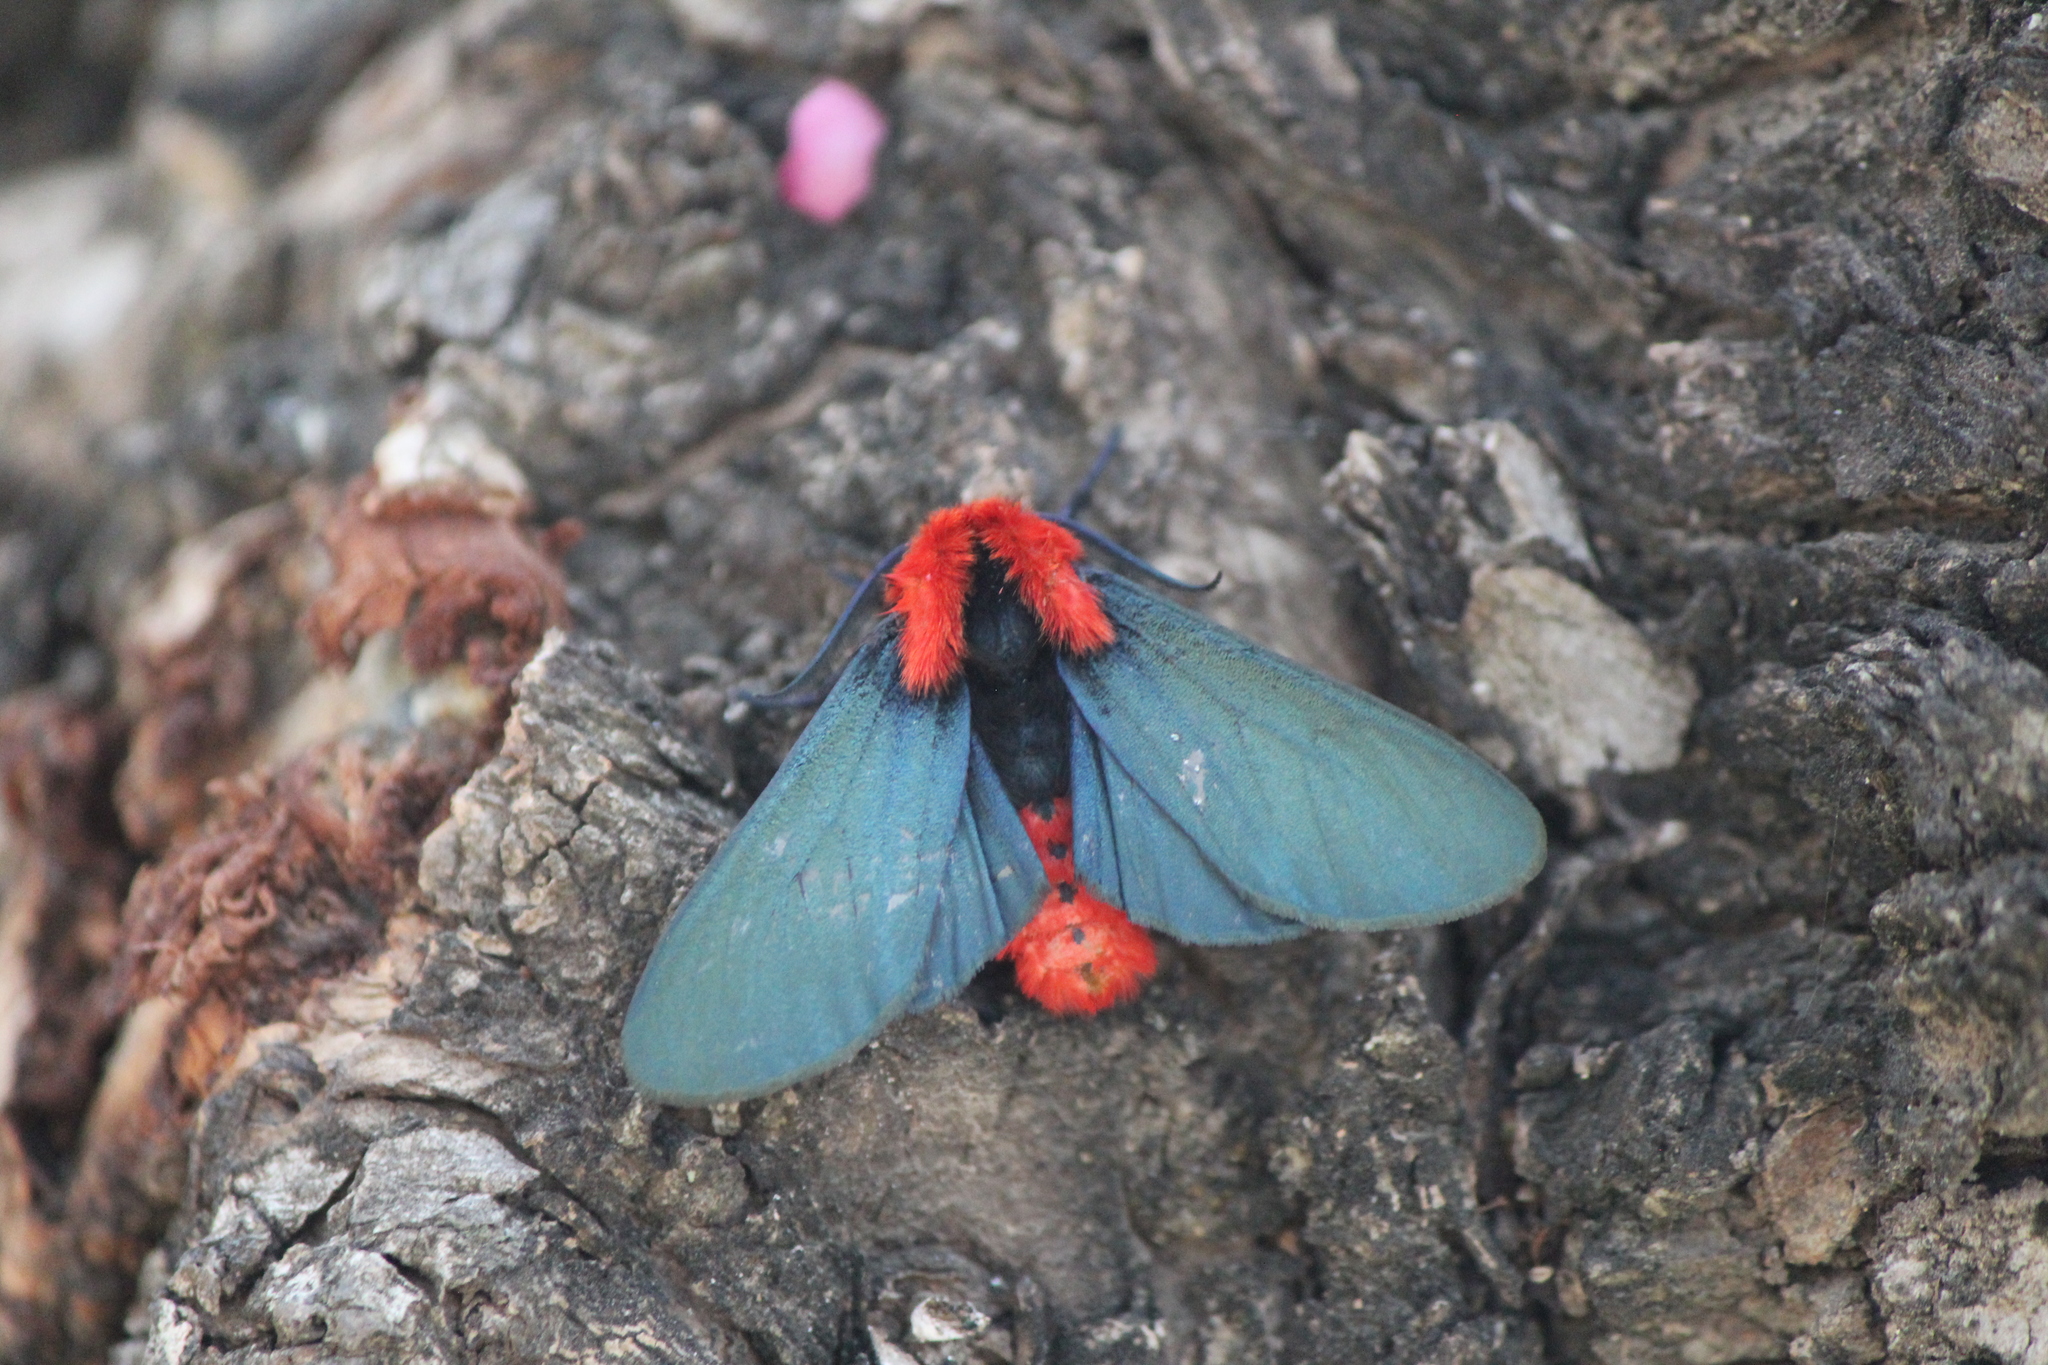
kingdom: Animalia
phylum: Arthropoda
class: Insecta
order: Lepidoptera
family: Erebidae
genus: Lerina
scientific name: Lerina incarnata
